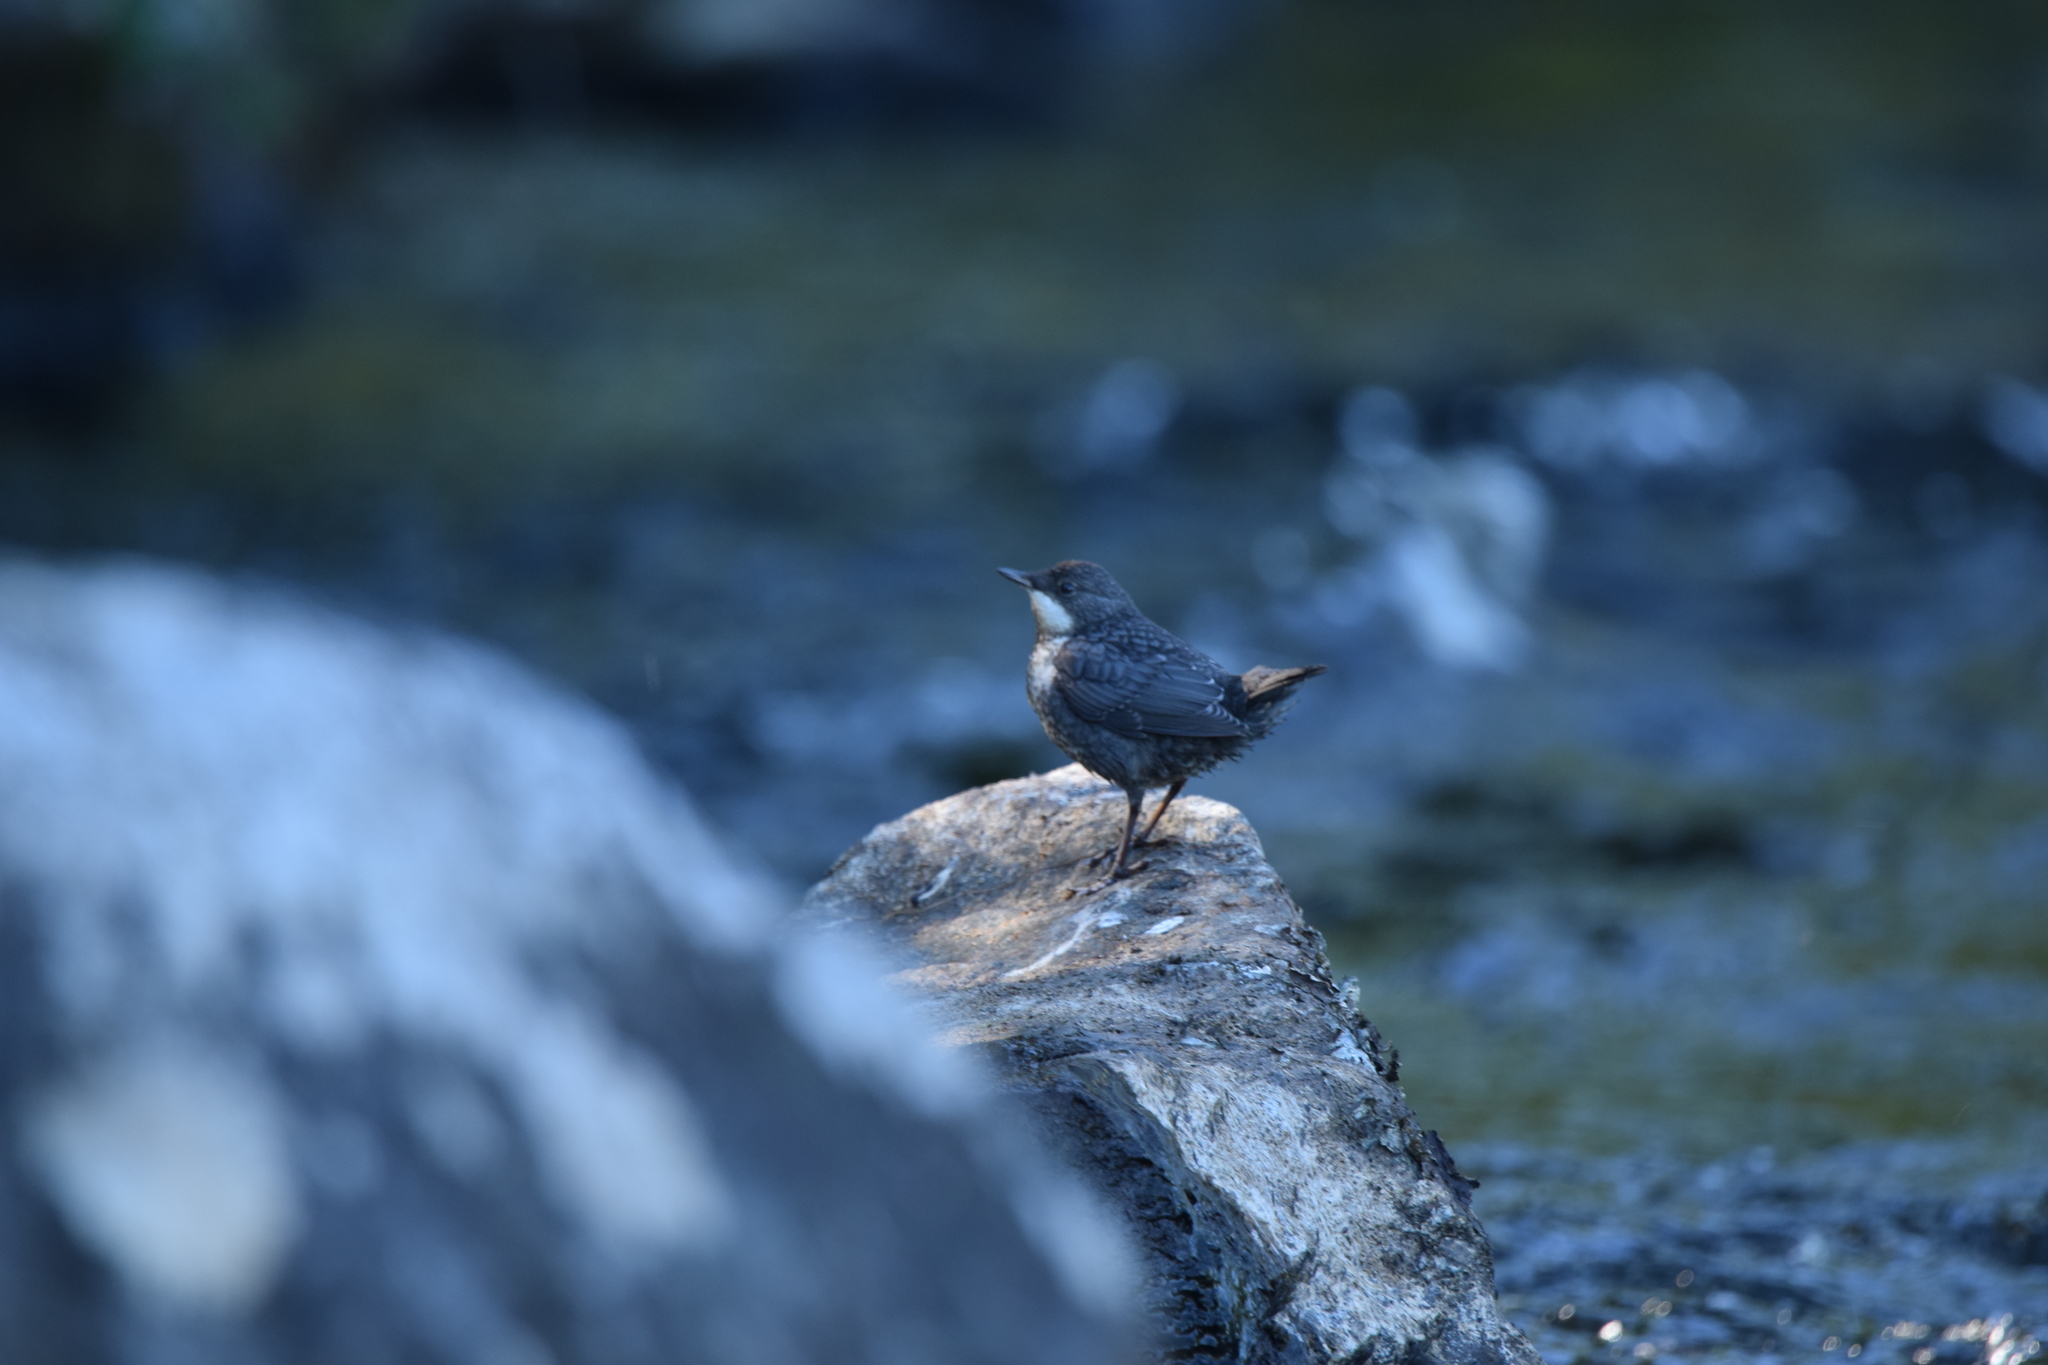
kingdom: Animalia
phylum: Chordata
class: Aves
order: Passeriformes
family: Cinclidae
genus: Cinclus
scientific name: Cinclus cinclus
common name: White-throated dipper
